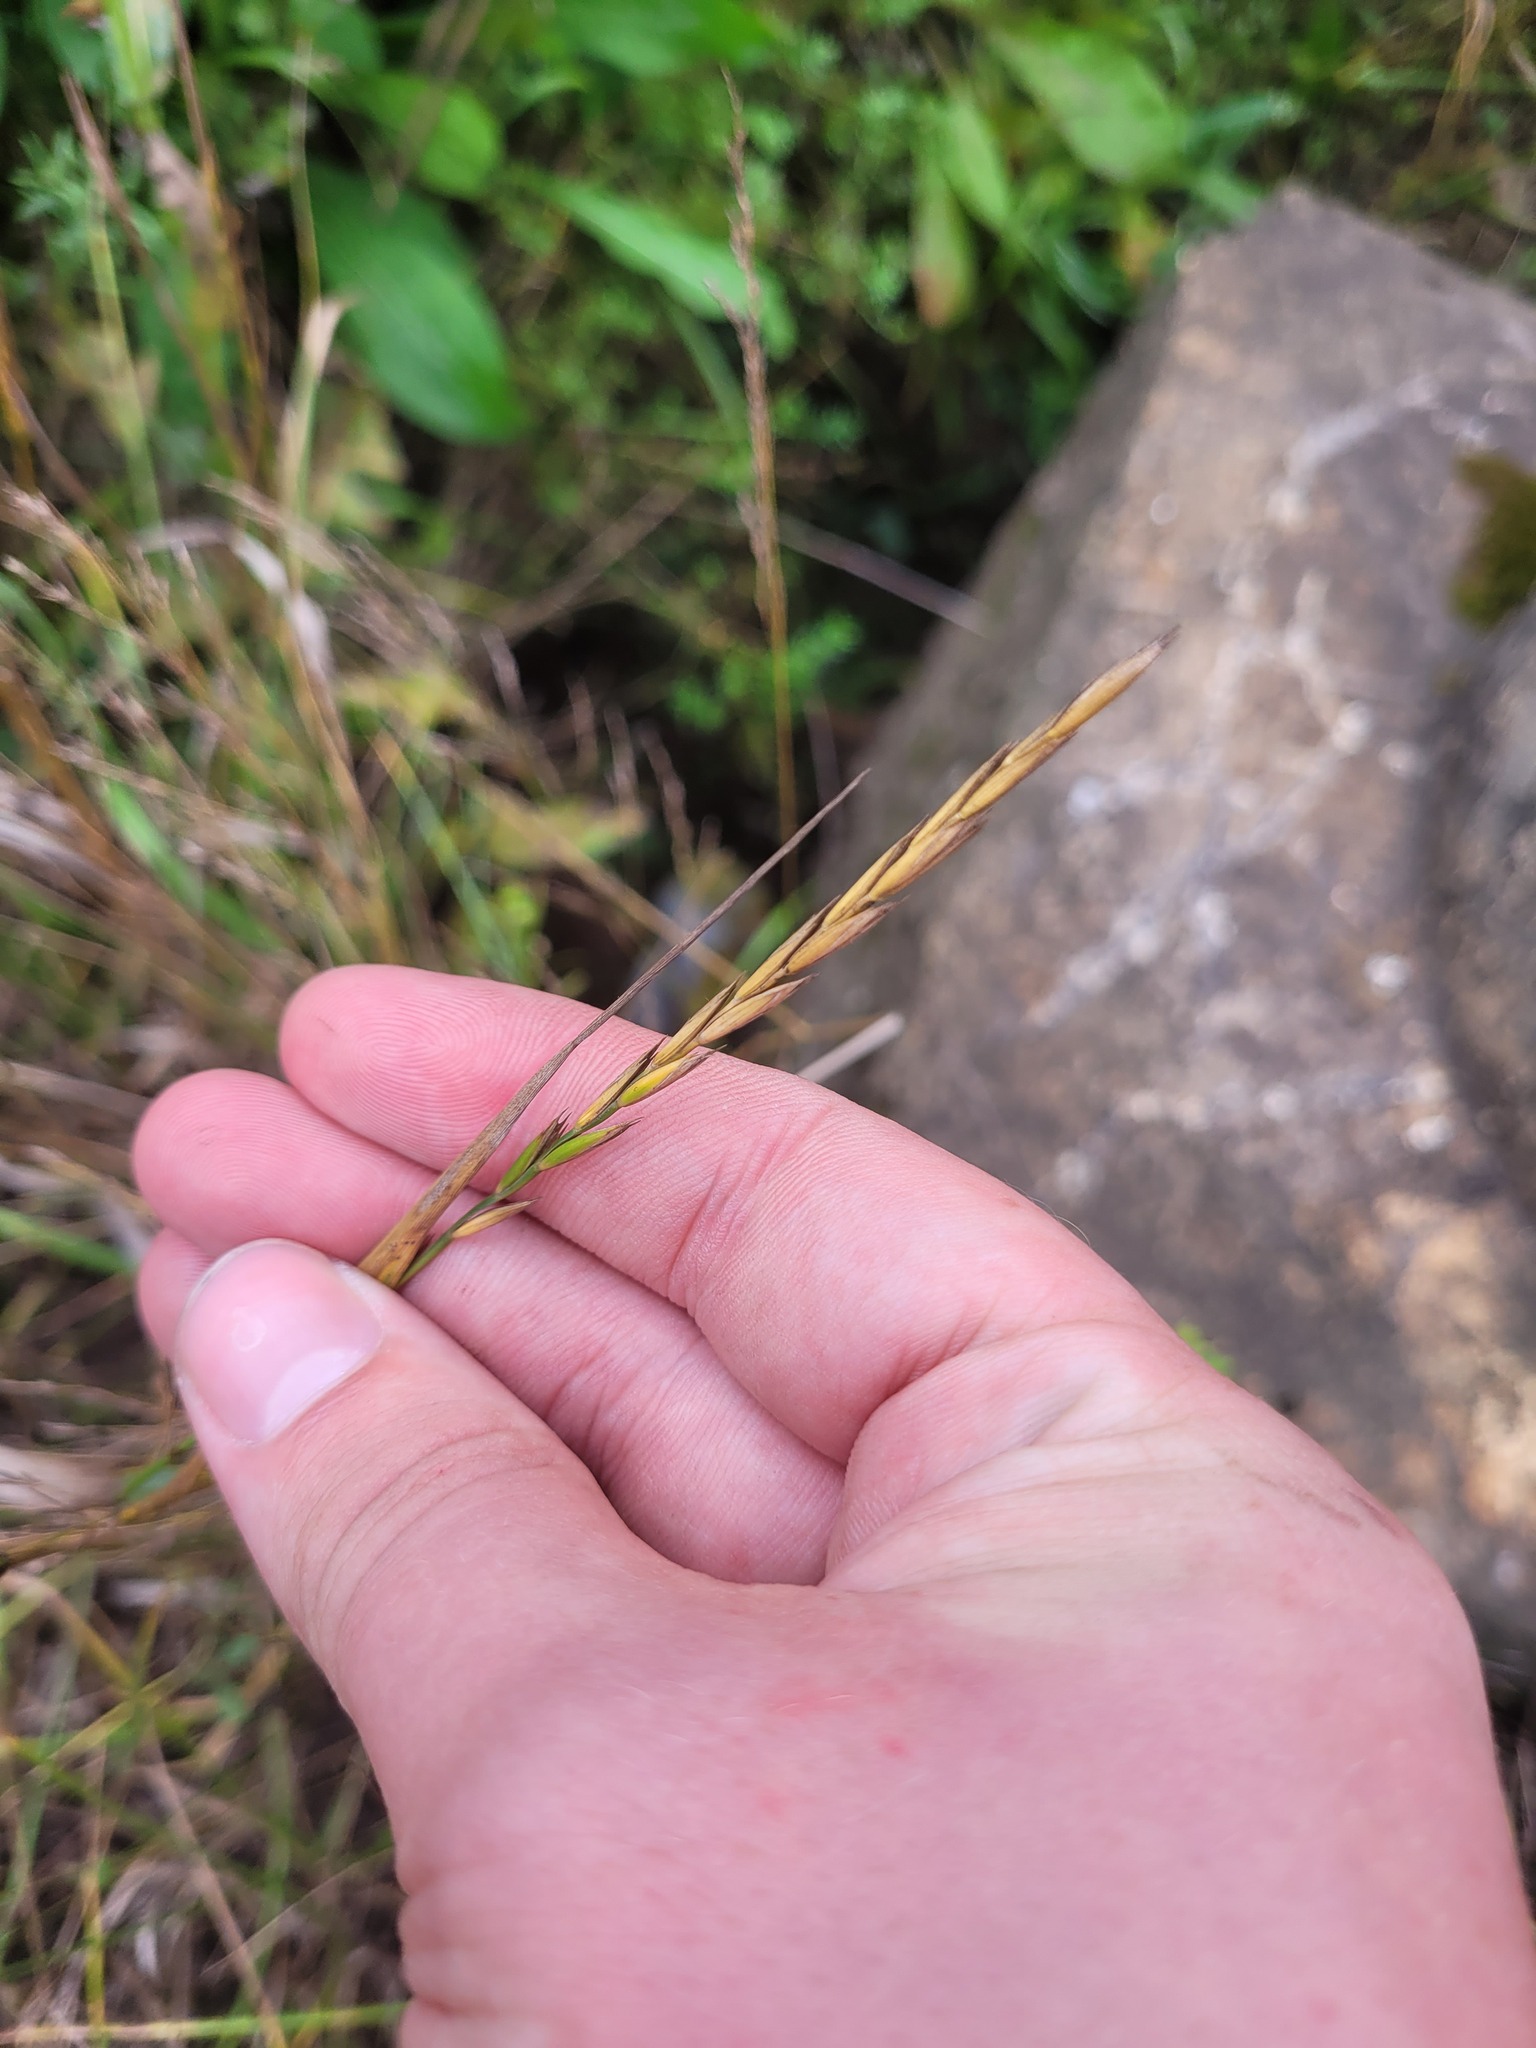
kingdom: Plantae
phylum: Tracheophyta
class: Liliopsida
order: Poales
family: Poaceae
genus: Elymus
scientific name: Elymus repens
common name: Quackgrass
